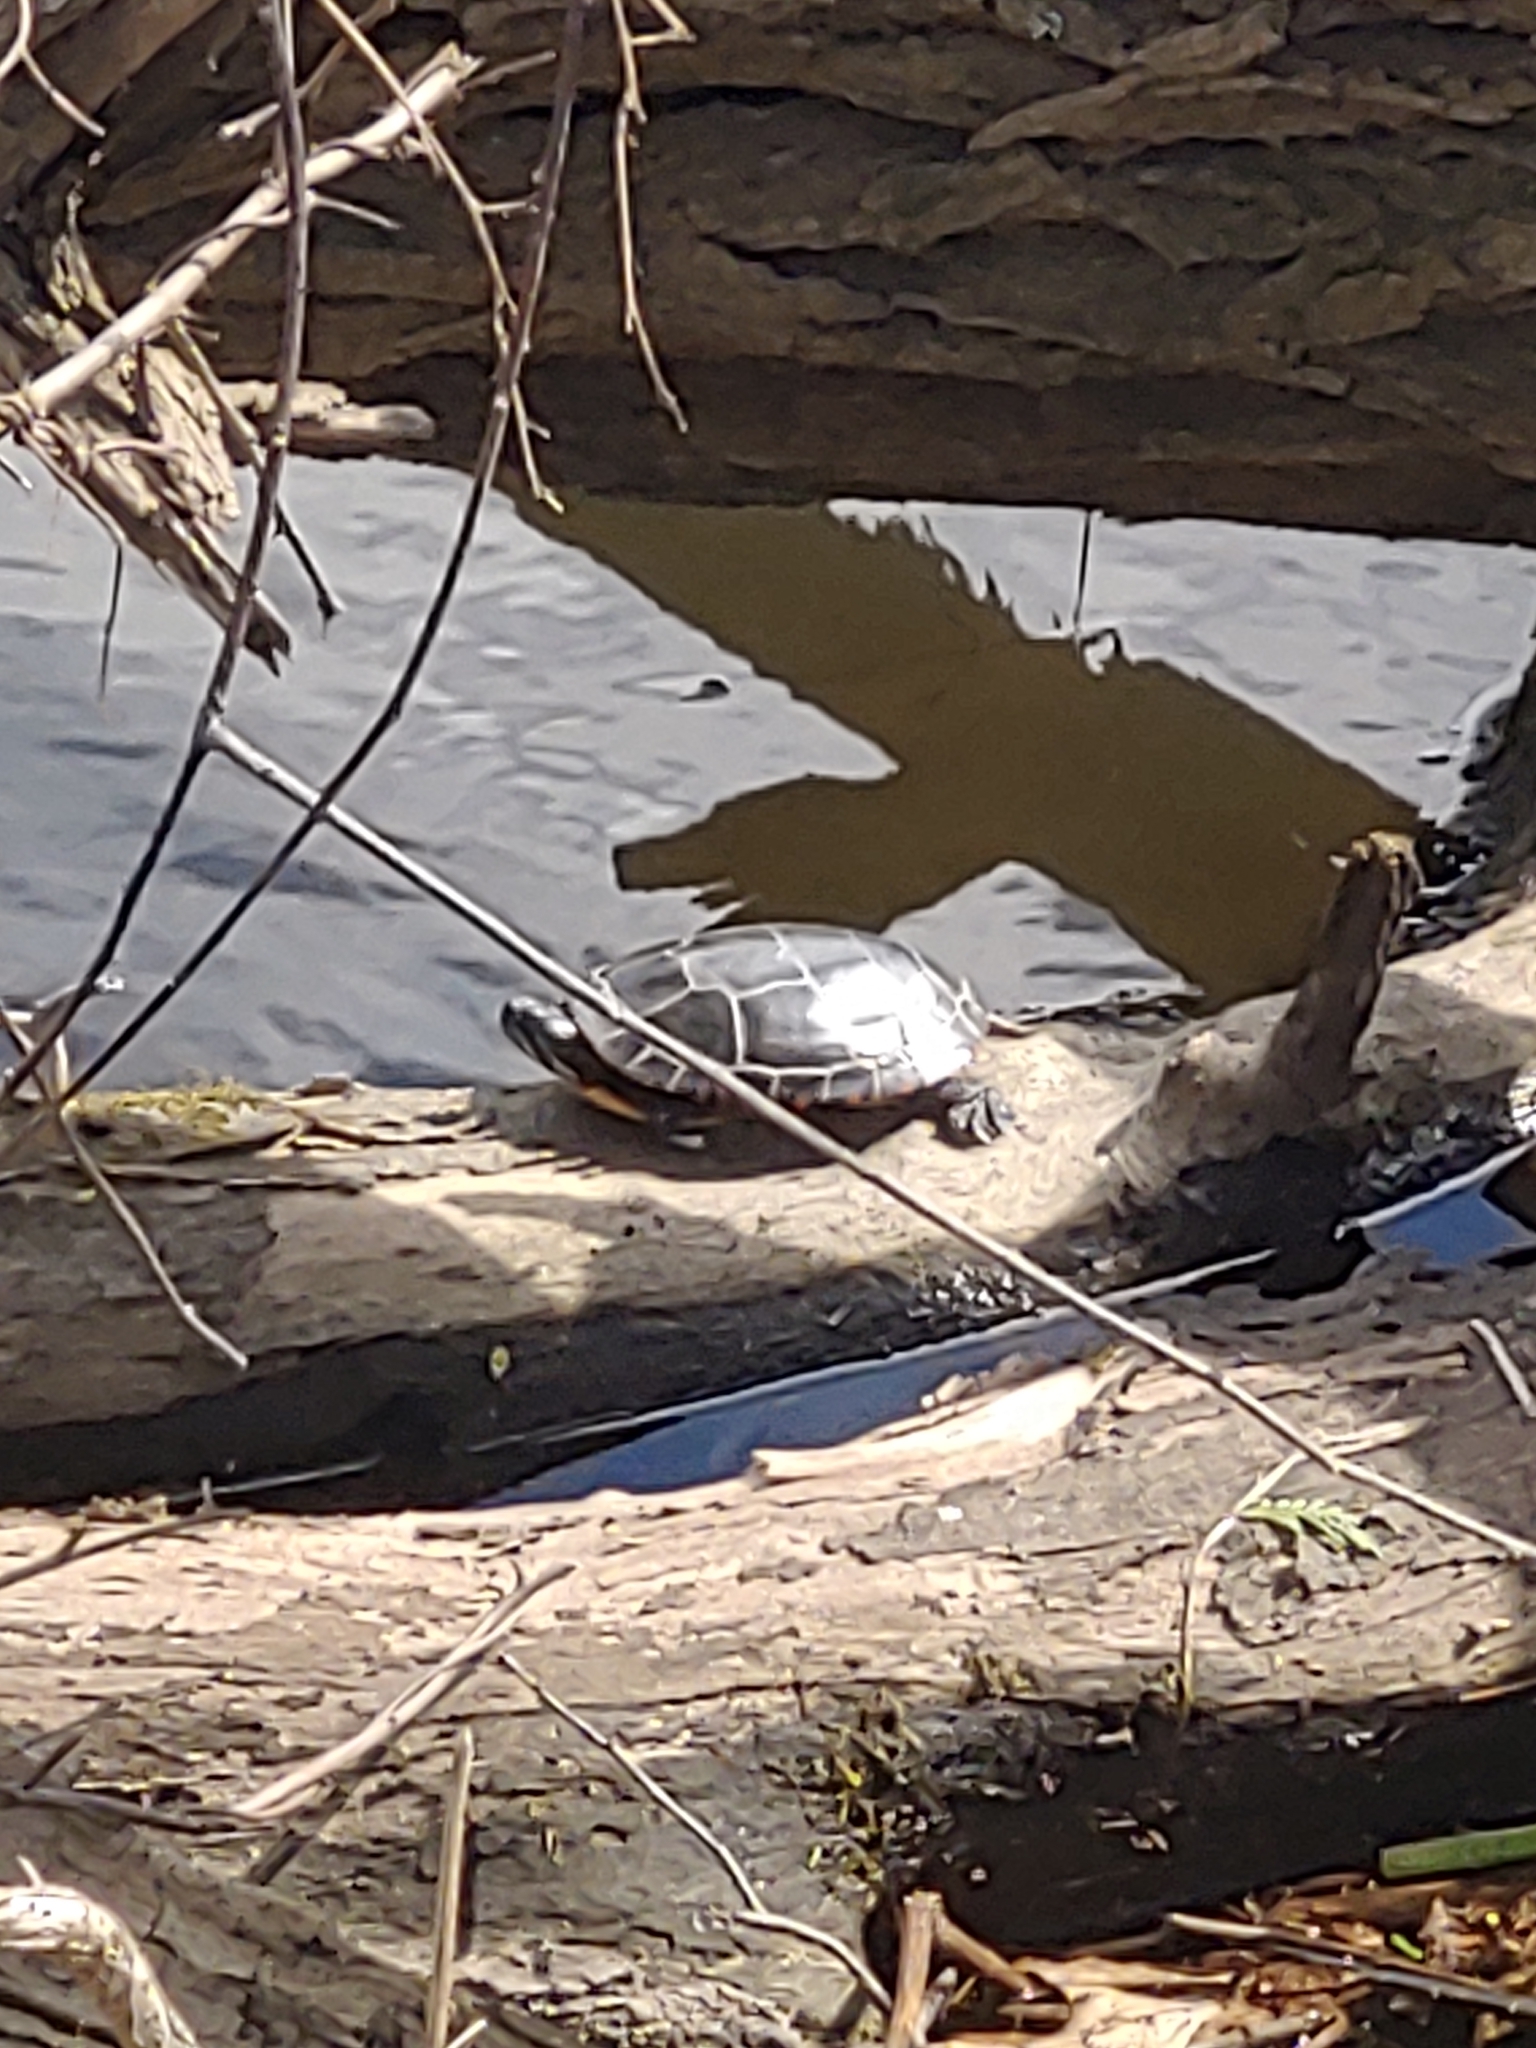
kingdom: Animalia
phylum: Chordata
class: Testudines
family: Emydidae
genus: Chrysemys
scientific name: Chrysemys picta
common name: Painted turtle
